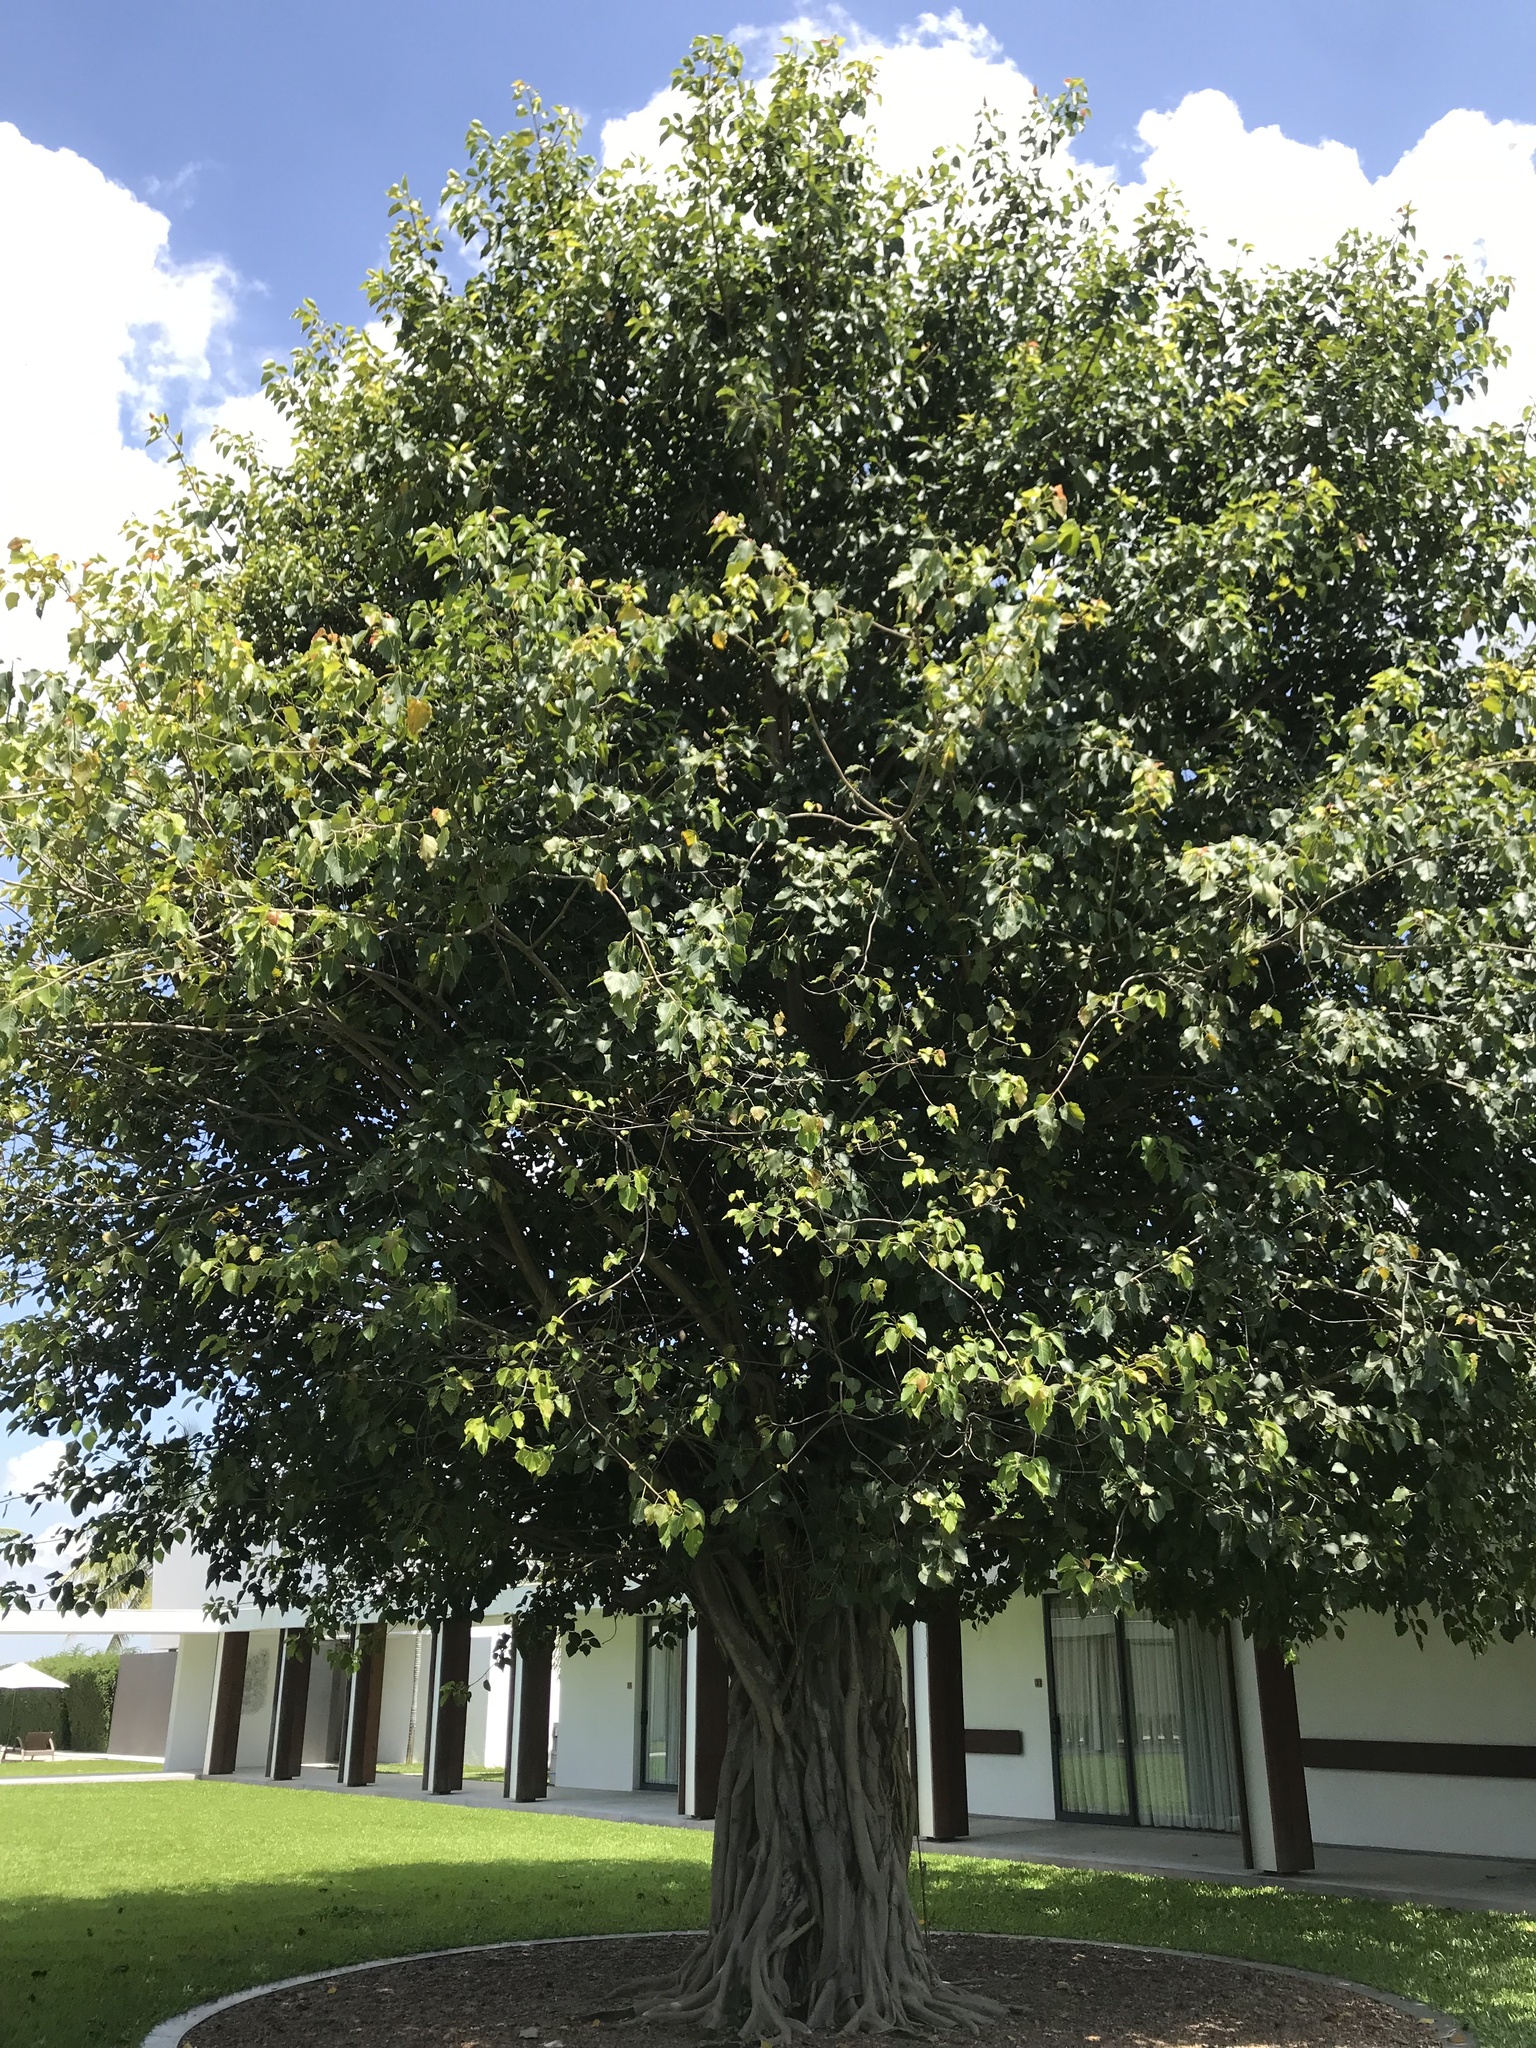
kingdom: Plantae
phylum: Tracheophyta
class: Magnoliopsida
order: Rosales
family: Moraceae
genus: Ficus
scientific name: Ficus religiosa
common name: Bodhi tree
